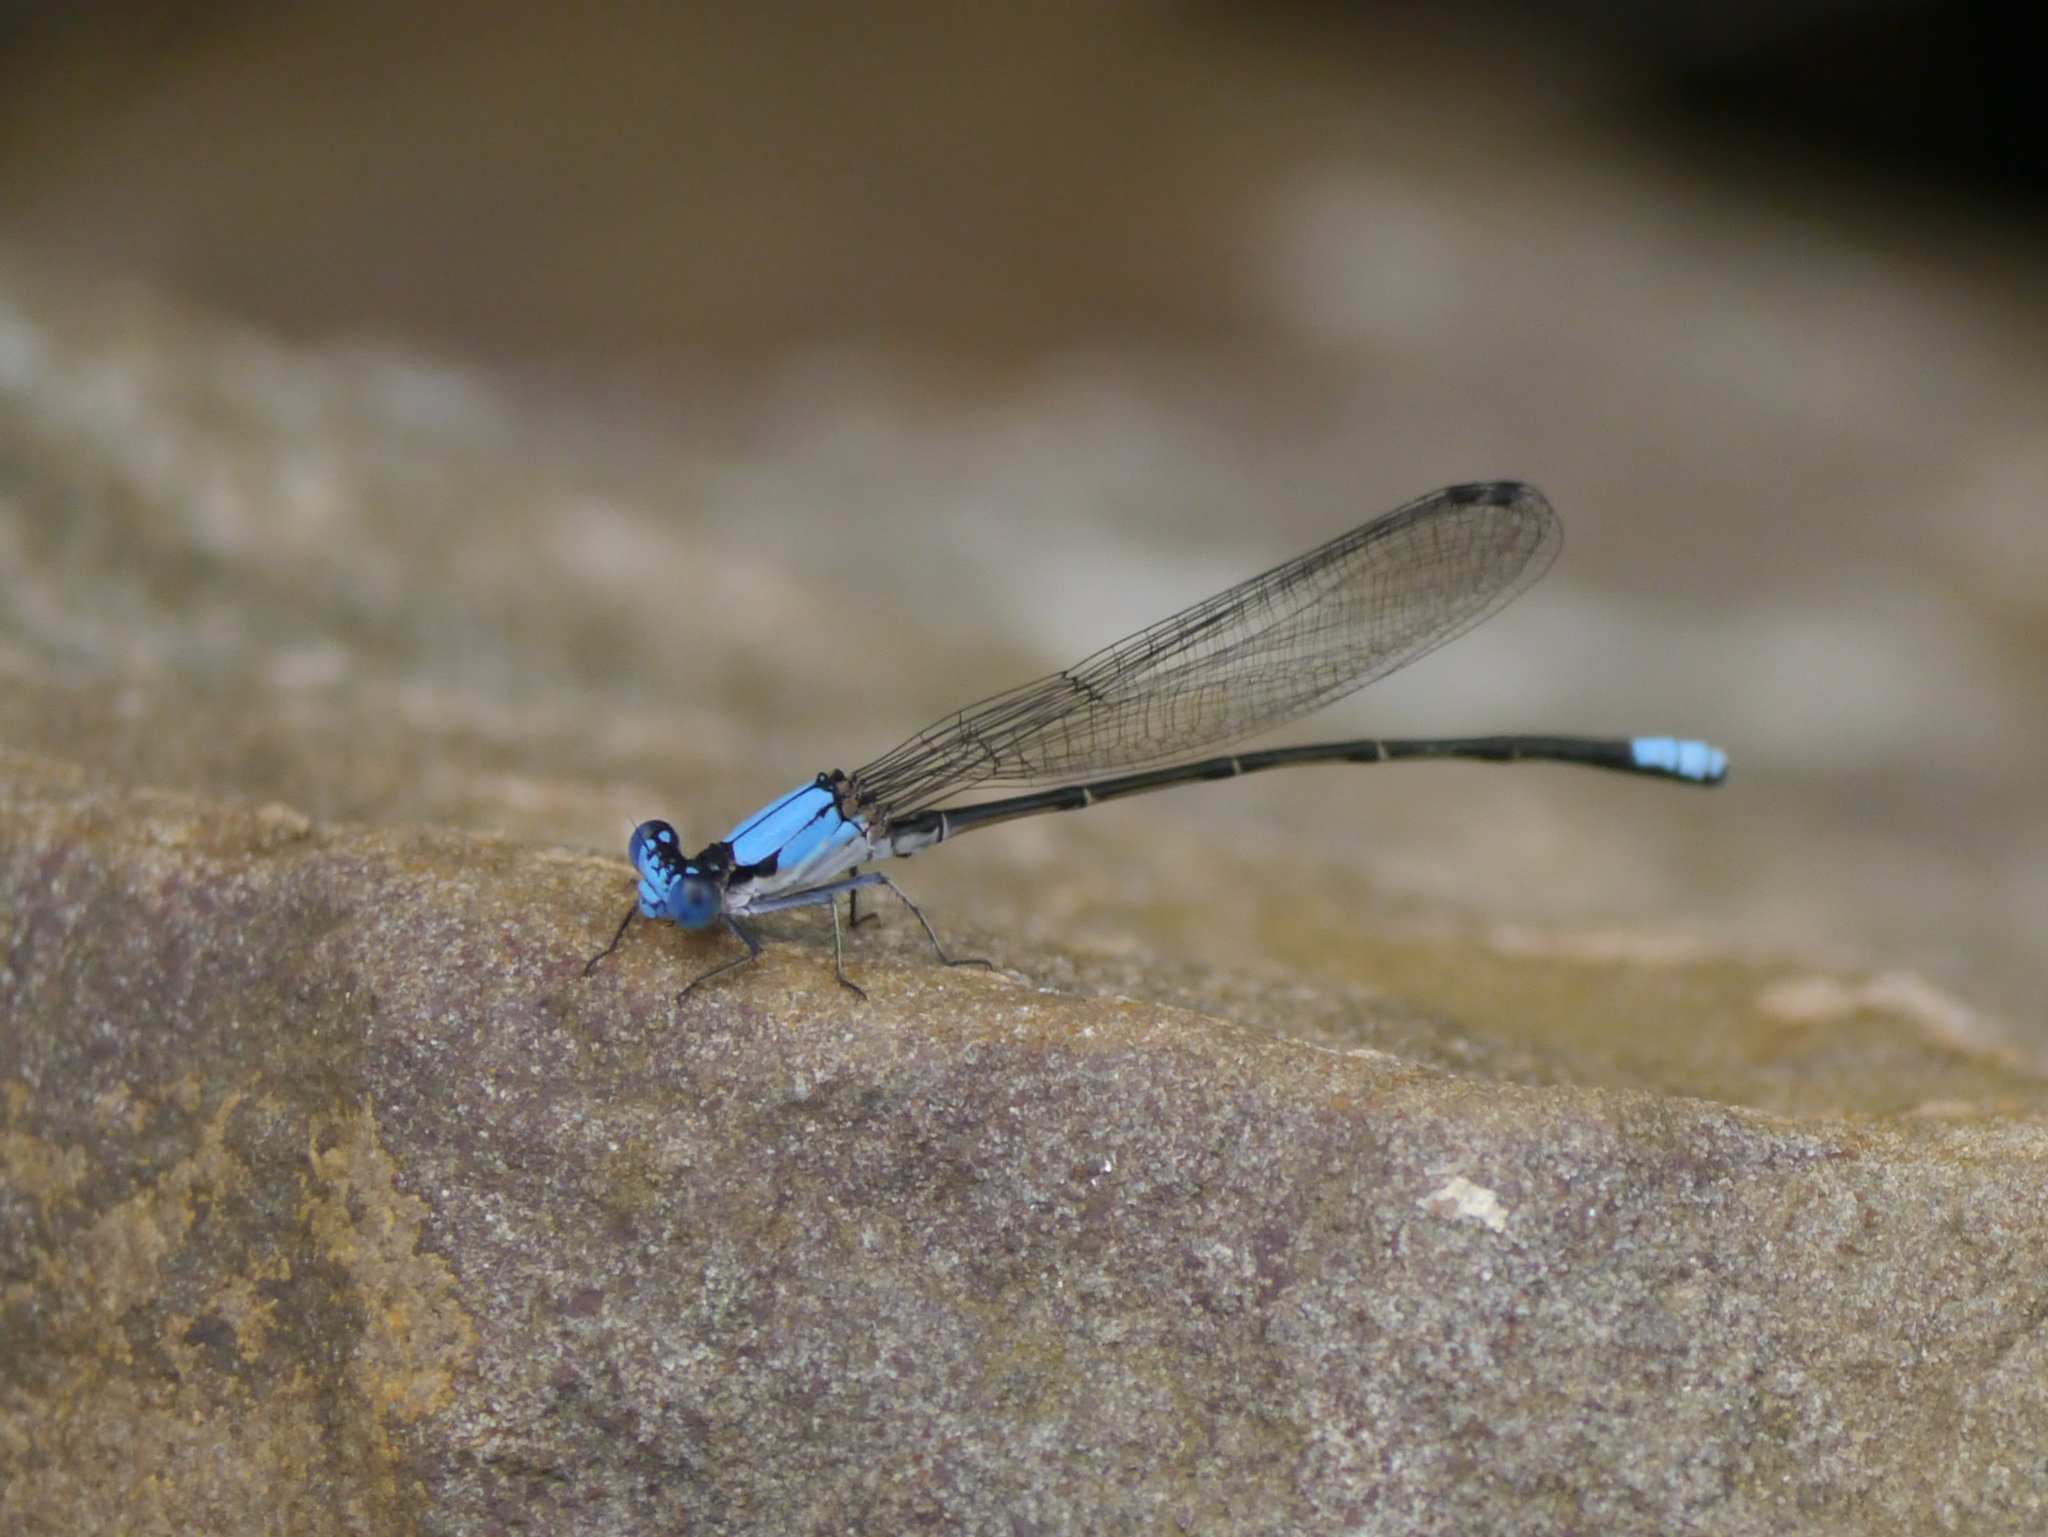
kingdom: Animalia
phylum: Arthropoda
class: Insecta
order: Odonata
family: Coenagrionidae
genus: Argia
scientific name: Argia apicalis
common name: Blue-fronted dancer
